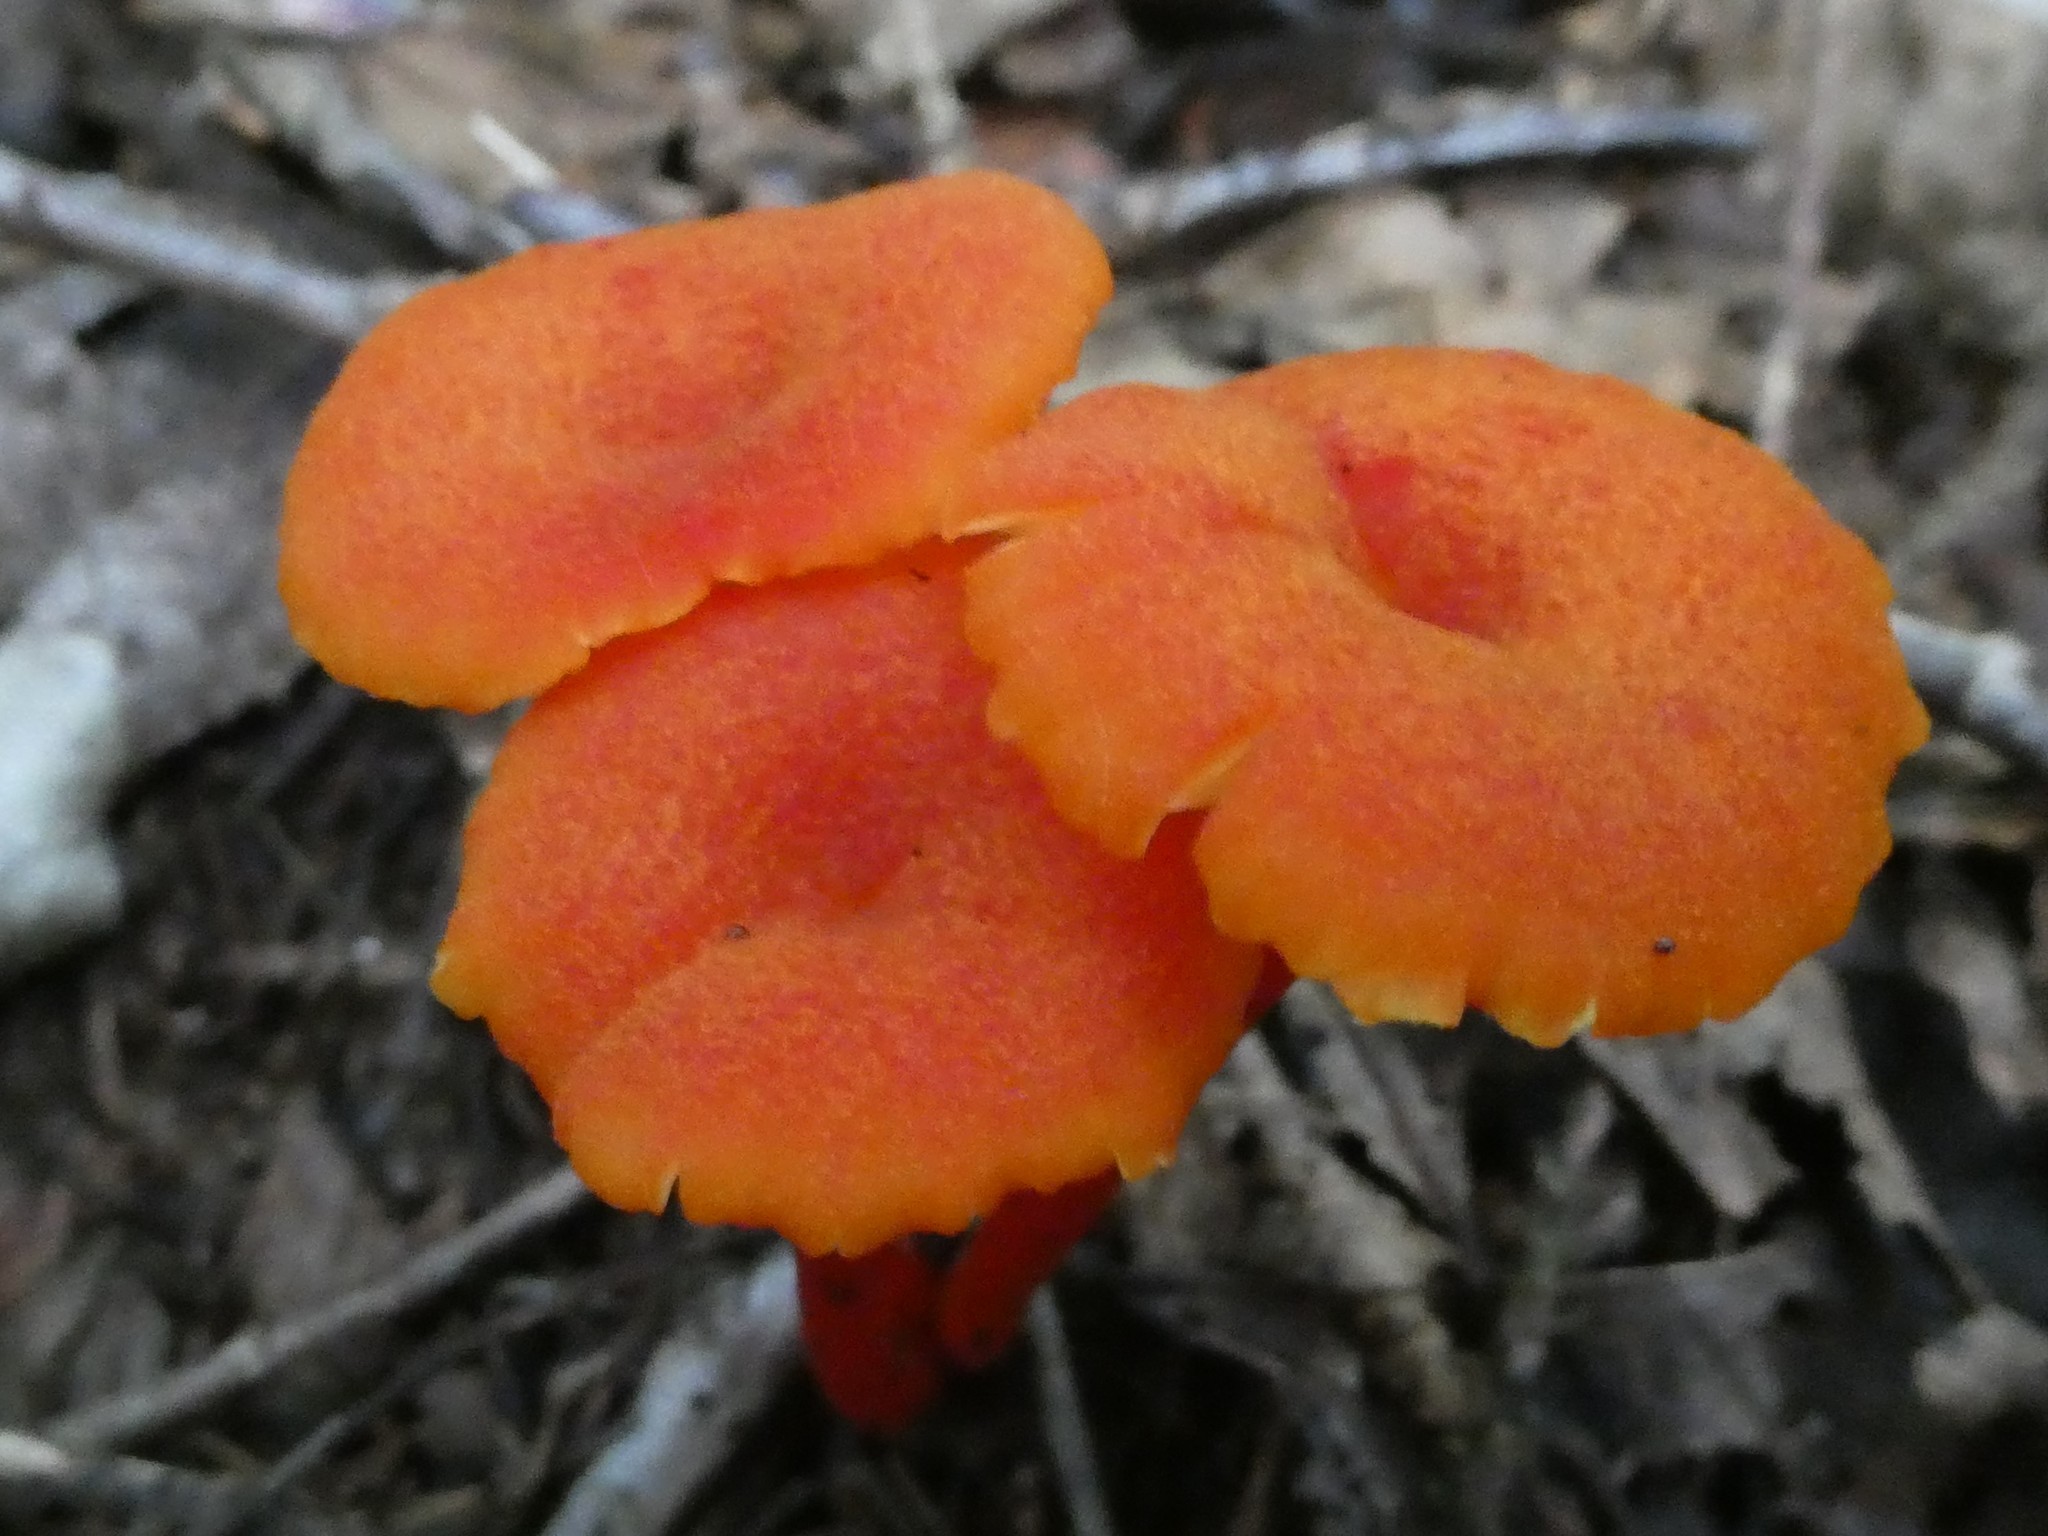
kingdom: Fungi
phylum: Basidiomycota
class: Agaricomycetes
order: Agaricales
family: Hygrophoraceae
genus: Hygrocybe
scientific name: Hygrocybe cantharellus
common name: Goblet waxcap
